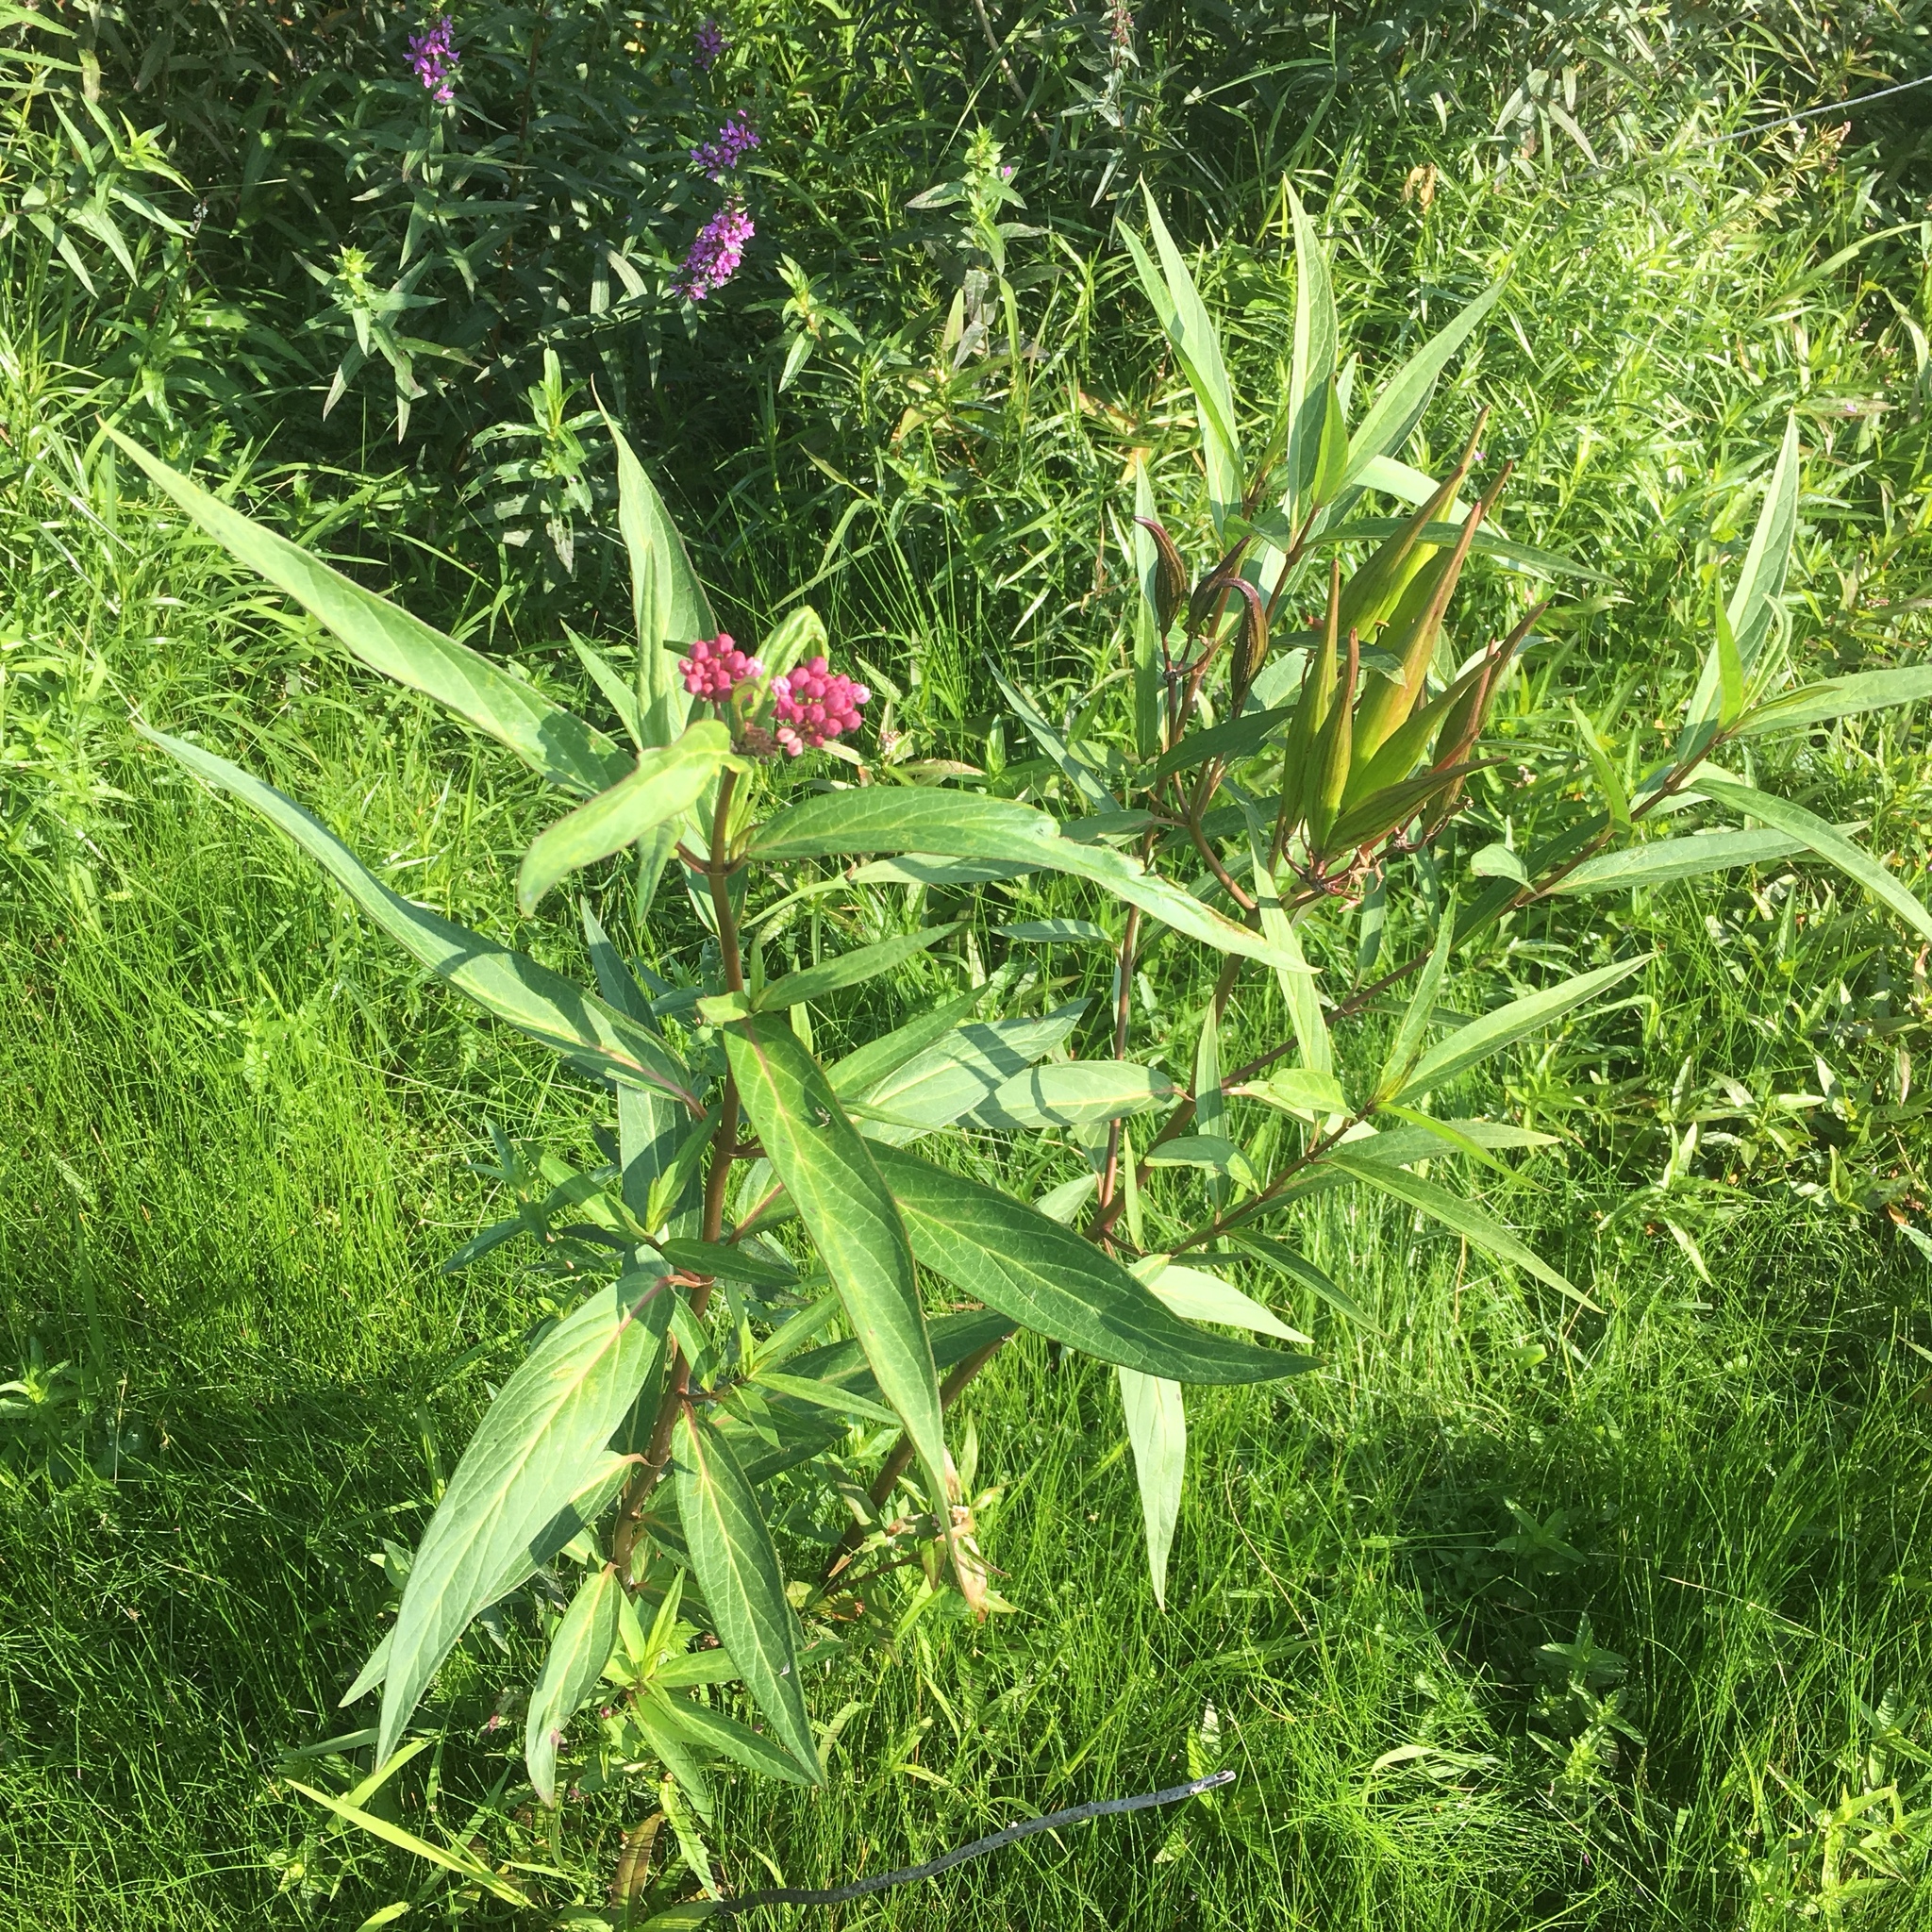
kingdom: Plantae
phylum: Tracheophyta
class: Magnoliopsida
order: Gentianales
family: Apocynaceae
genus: Asclepias
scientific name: Asclepias incarnata
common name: Swamp milkweed
